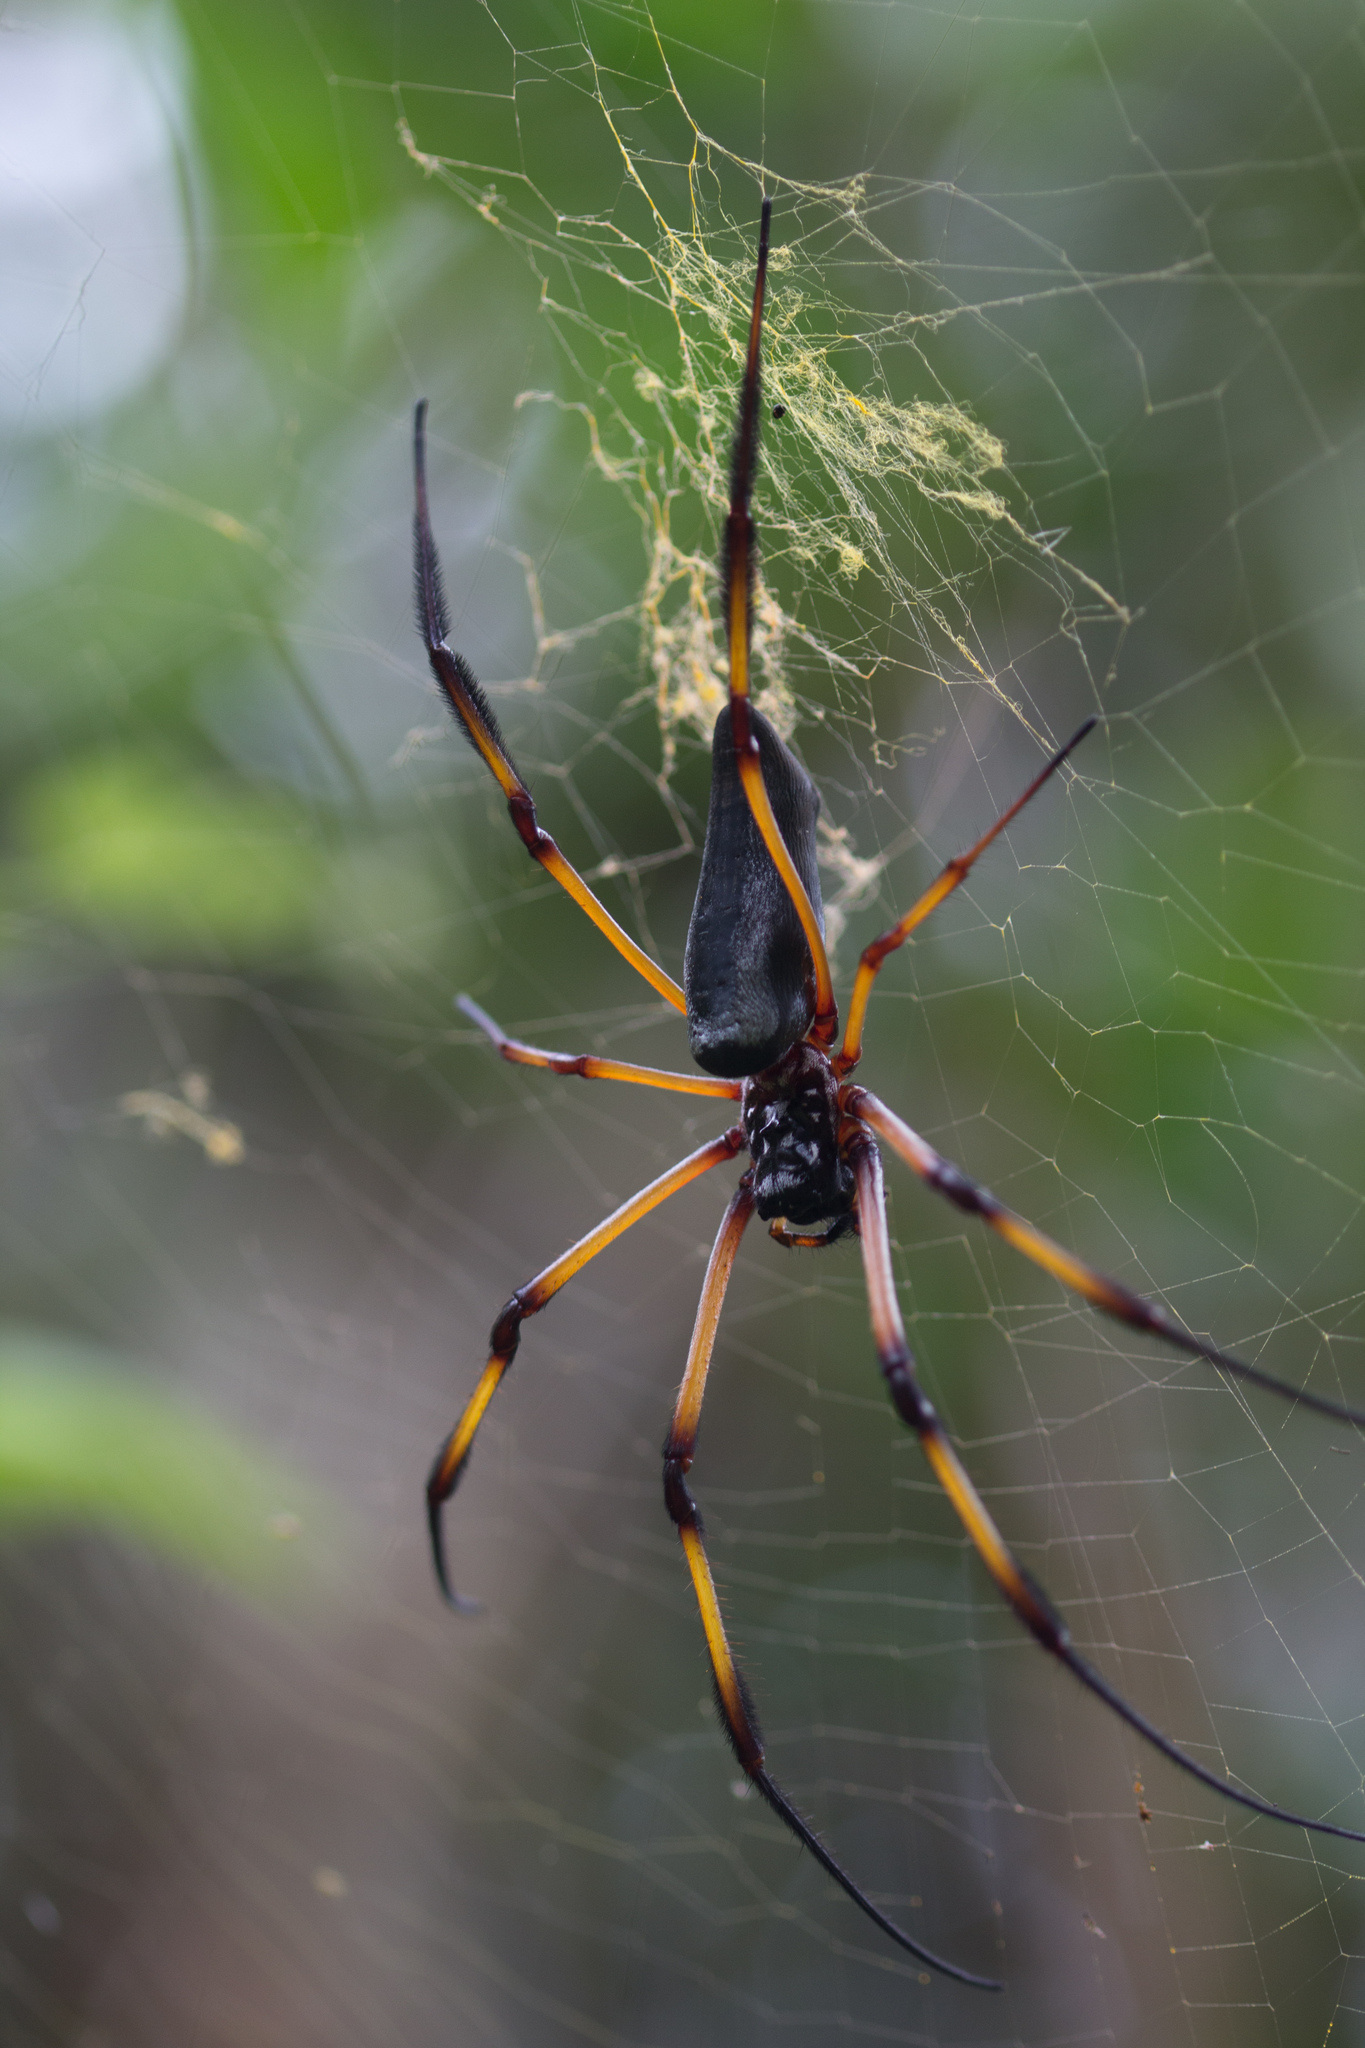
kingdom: Animalia
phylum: Arthropoda
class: Arachnida
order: Araneae
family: Araneidae
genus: Trichonephila
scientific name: Trichonephila inaurata
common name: Red-legged golden orb weaver
